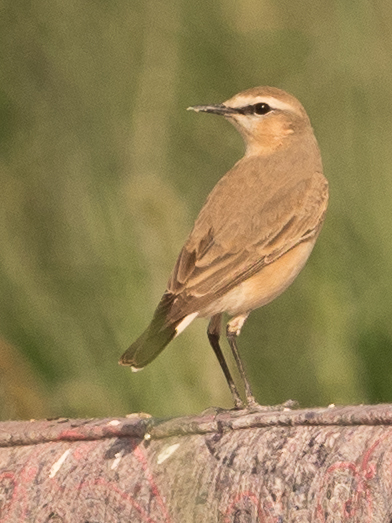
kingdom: Animalia
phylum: Chordata
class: Aves
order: Passeriformes
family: Muscicapidae
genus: Oenanthe
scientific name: Oenanthe isabellina
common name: Isabelline wheatear
